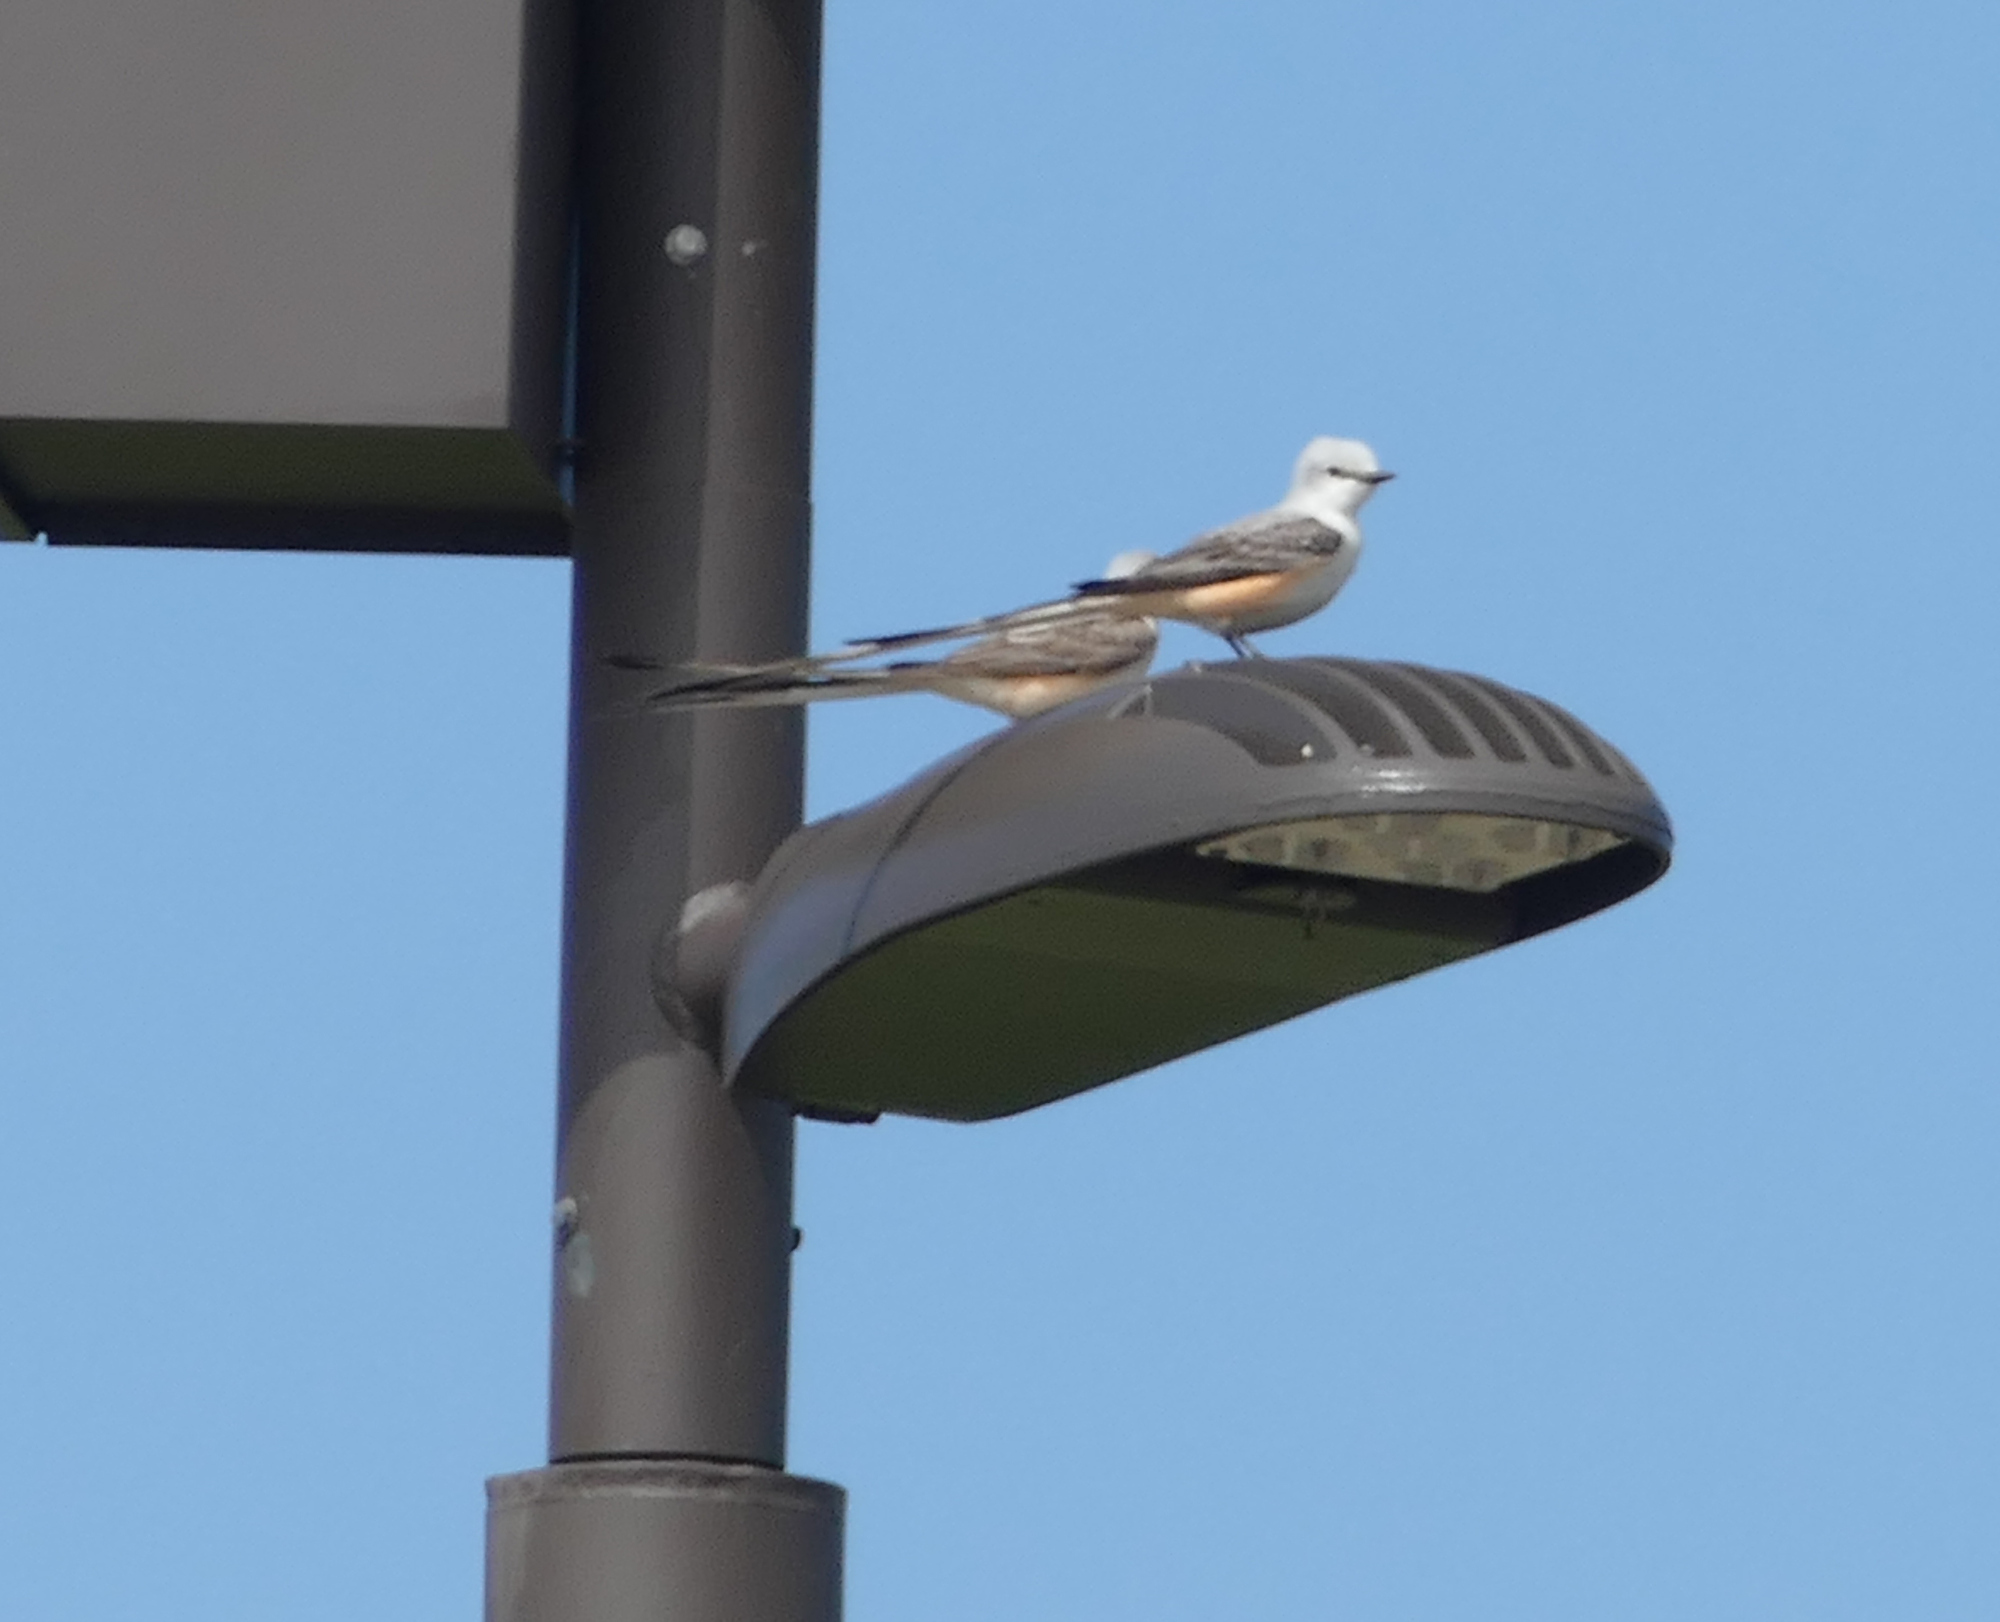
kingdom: Animalia
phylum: Chordata
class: Aves
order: Passeriformes
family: Tyrannidae
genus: Tyrannus
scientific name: Tyrannus forficatus
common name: Scissor-tailed flycatcher
